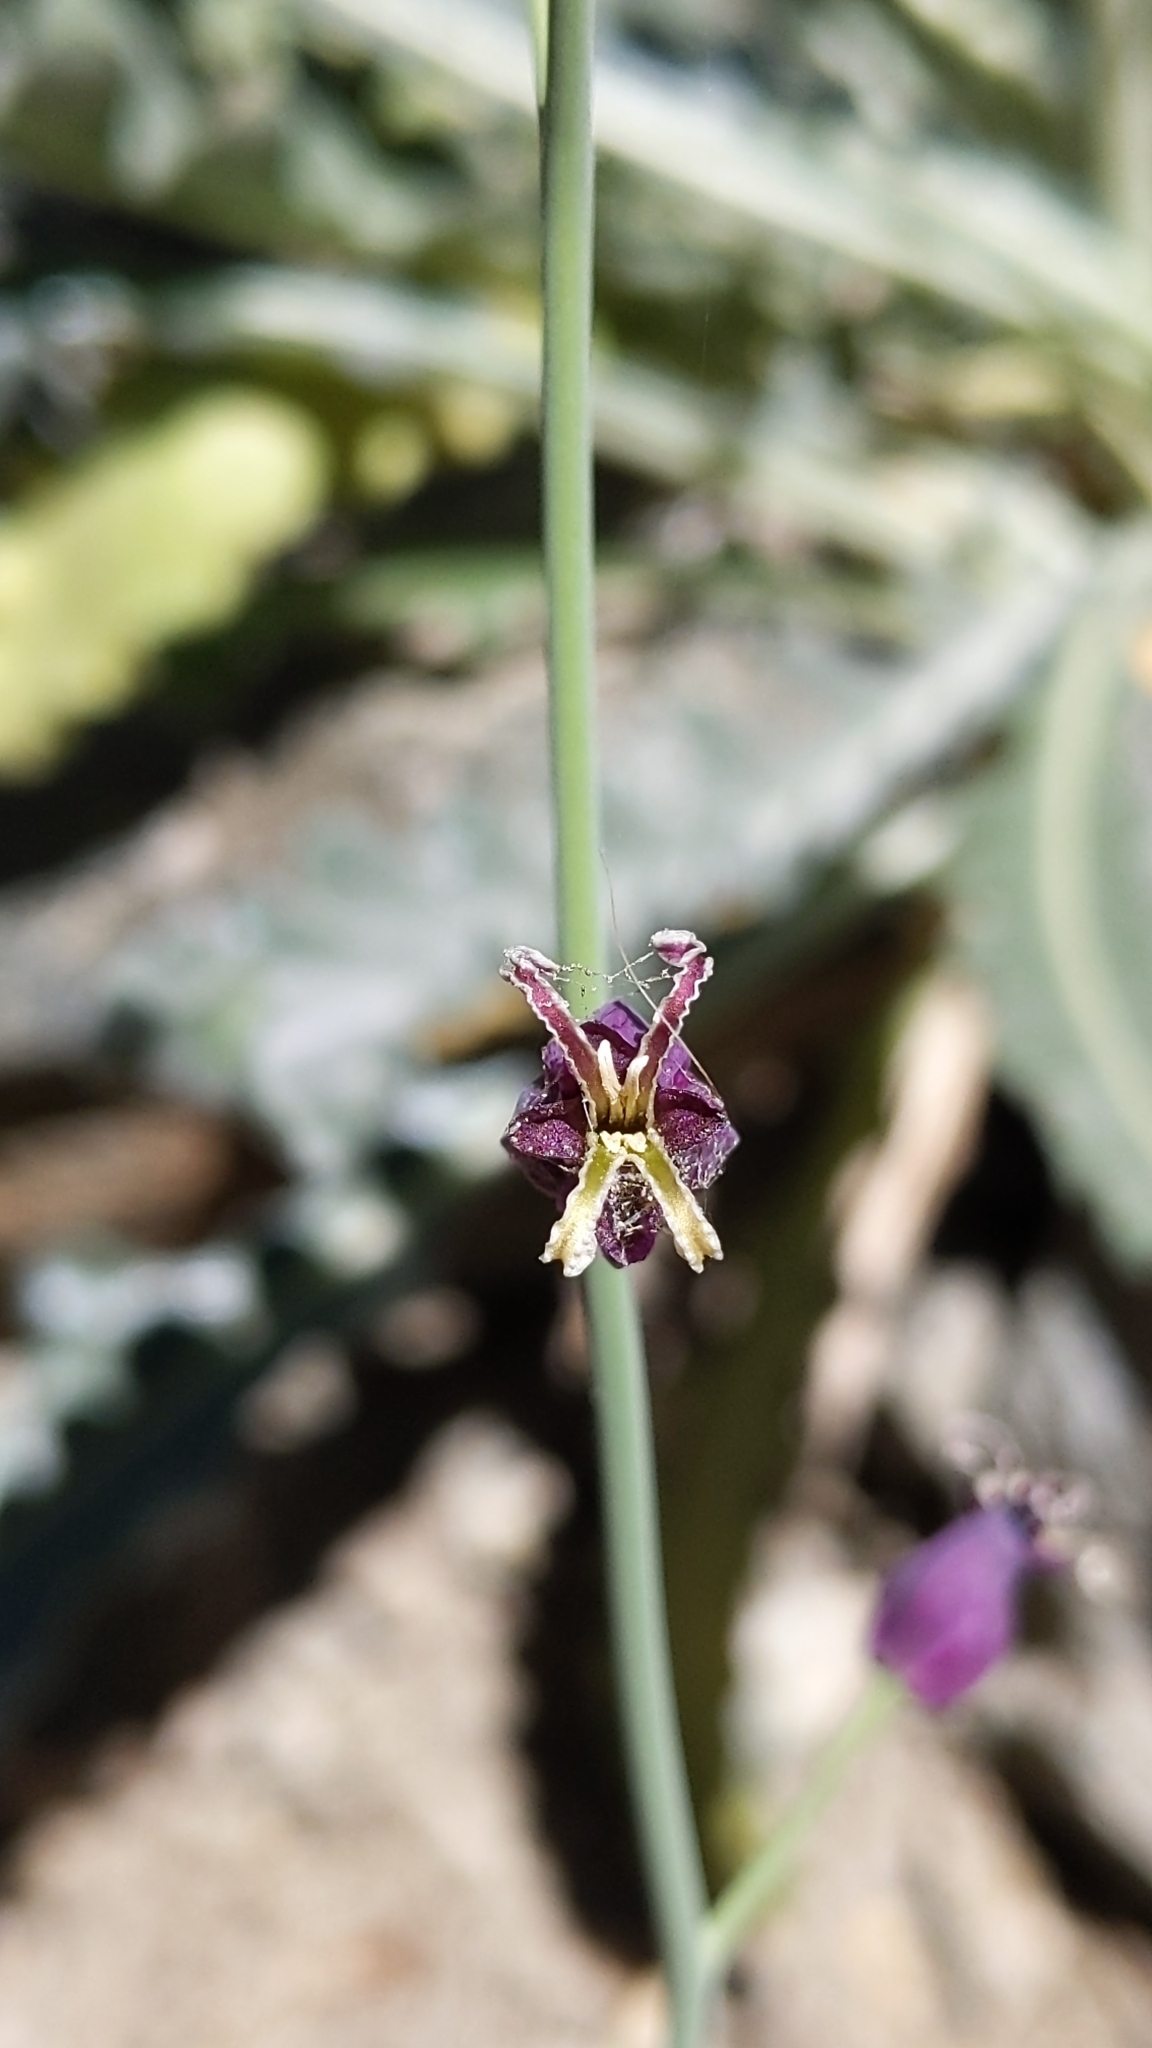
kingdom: Plantae
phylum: Tracheophyta
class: Magnoliopsida
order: Brassicales
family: Brassicaceae
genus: Streptanthus
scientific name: Streptanthus amplexicaulis
